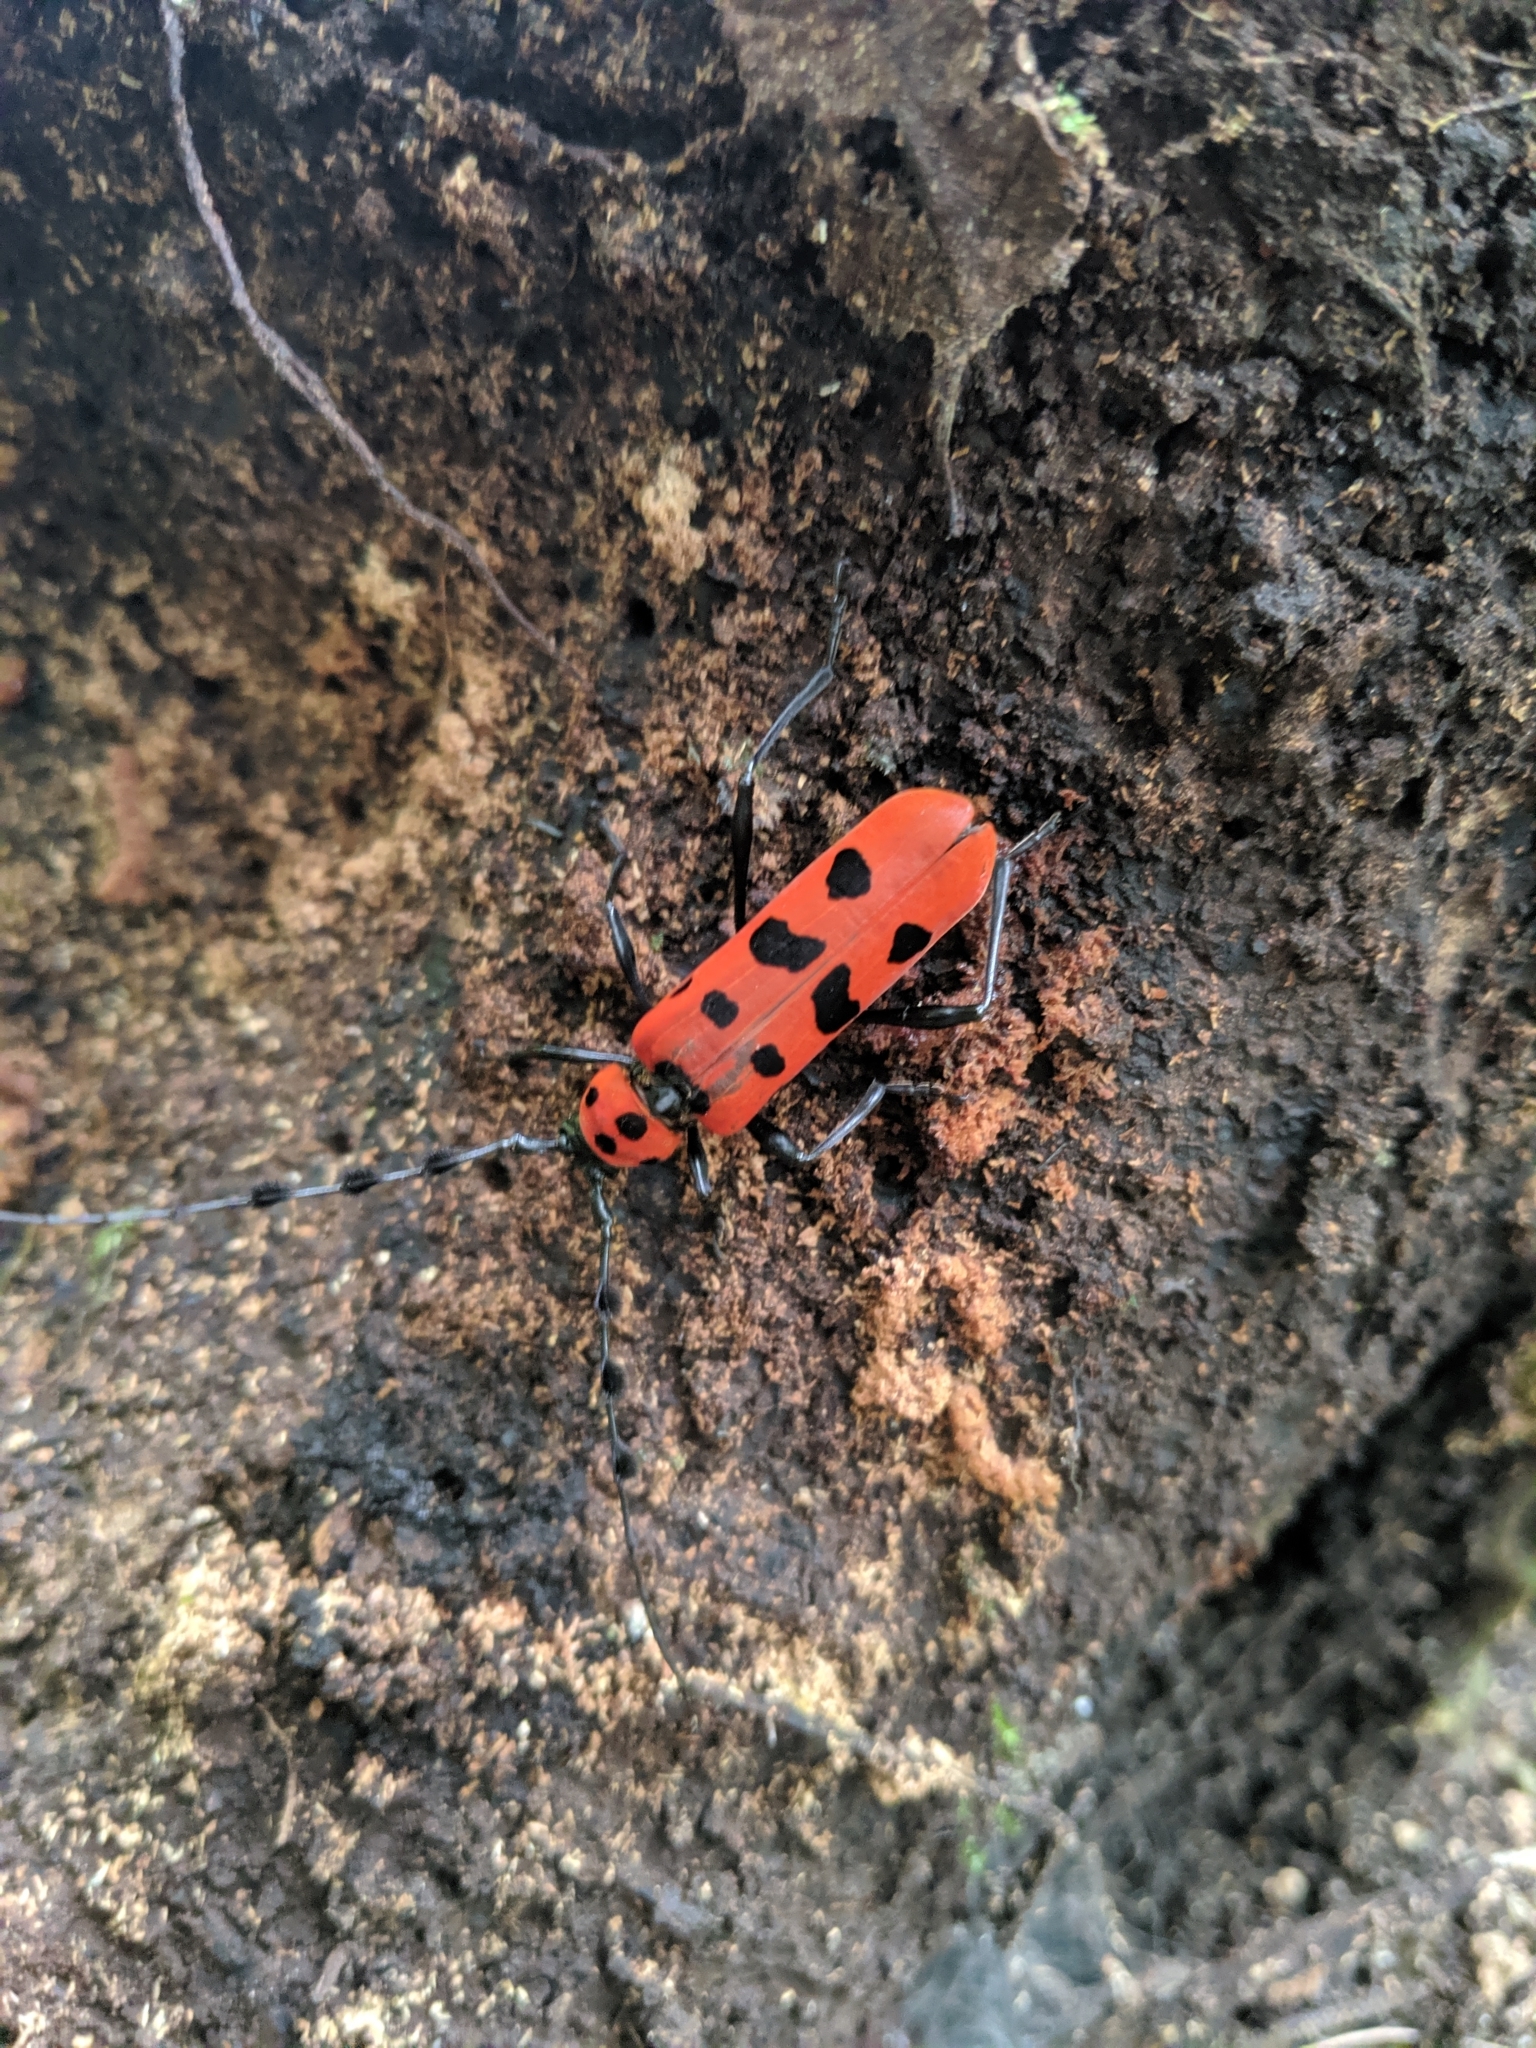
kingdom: Animalia
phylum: Arthropoda
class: Insecta
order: Coleoptera
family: Cerambycidae
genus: Rosalia
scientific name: Rosalia lesnei
